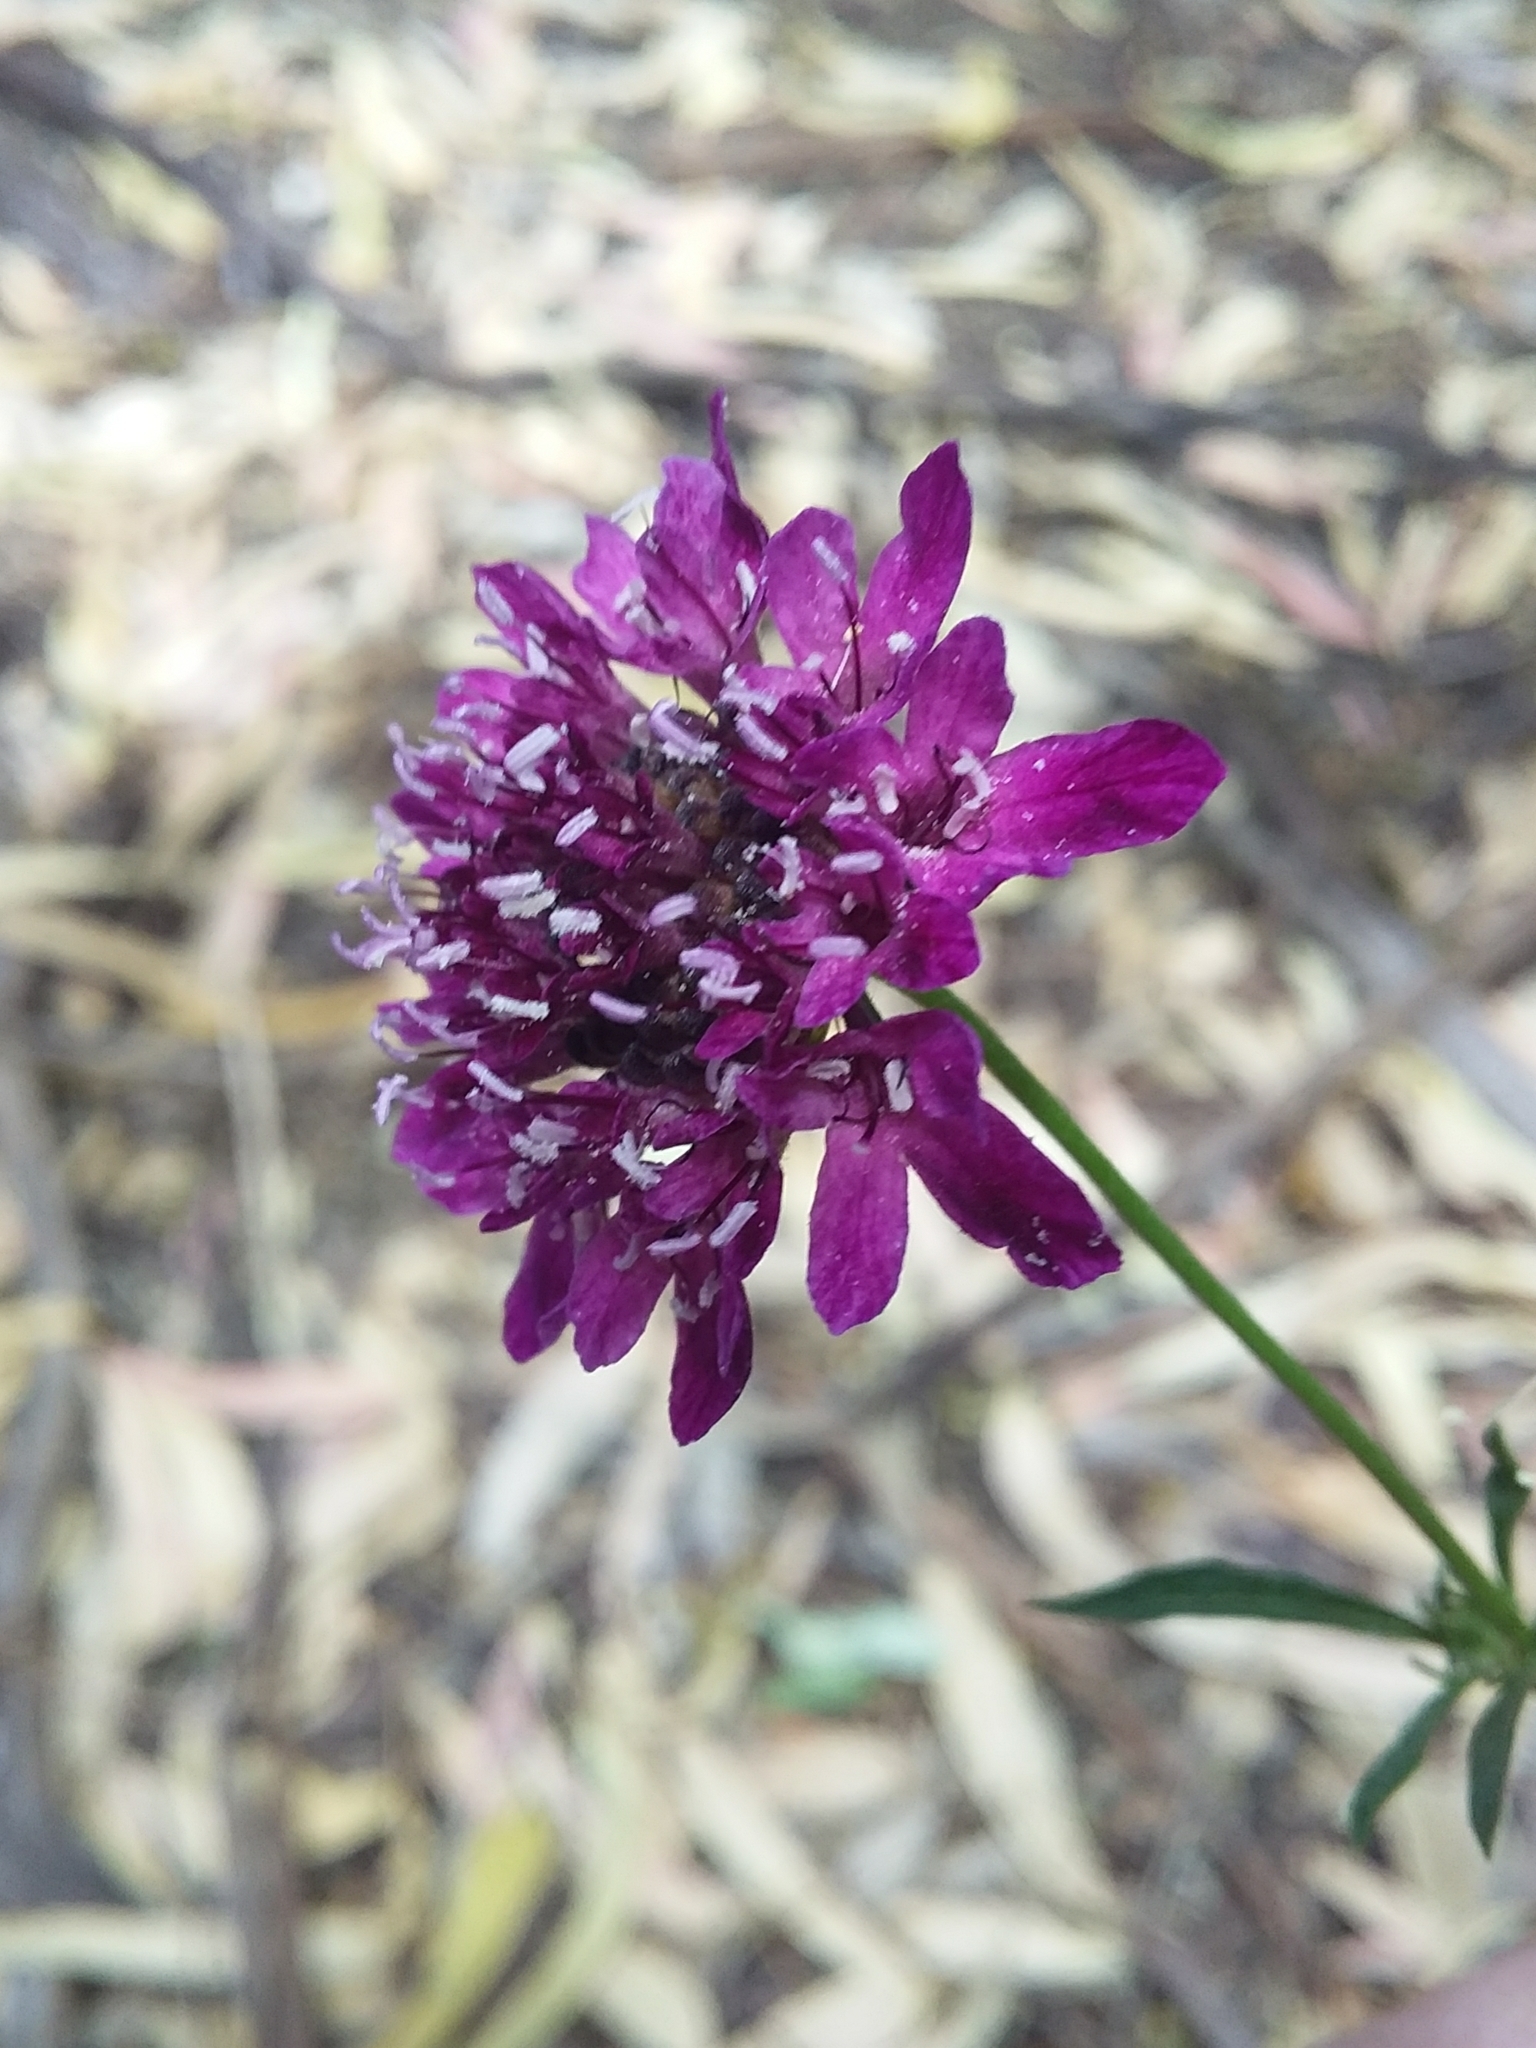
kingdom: Plantae
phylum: Tracheophyta
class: Magnoliopsida
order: Dipsacales
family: Caprifoliaceae
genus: Sixalix
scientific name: Sixalix atropurpurea
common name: Sweet scabious
